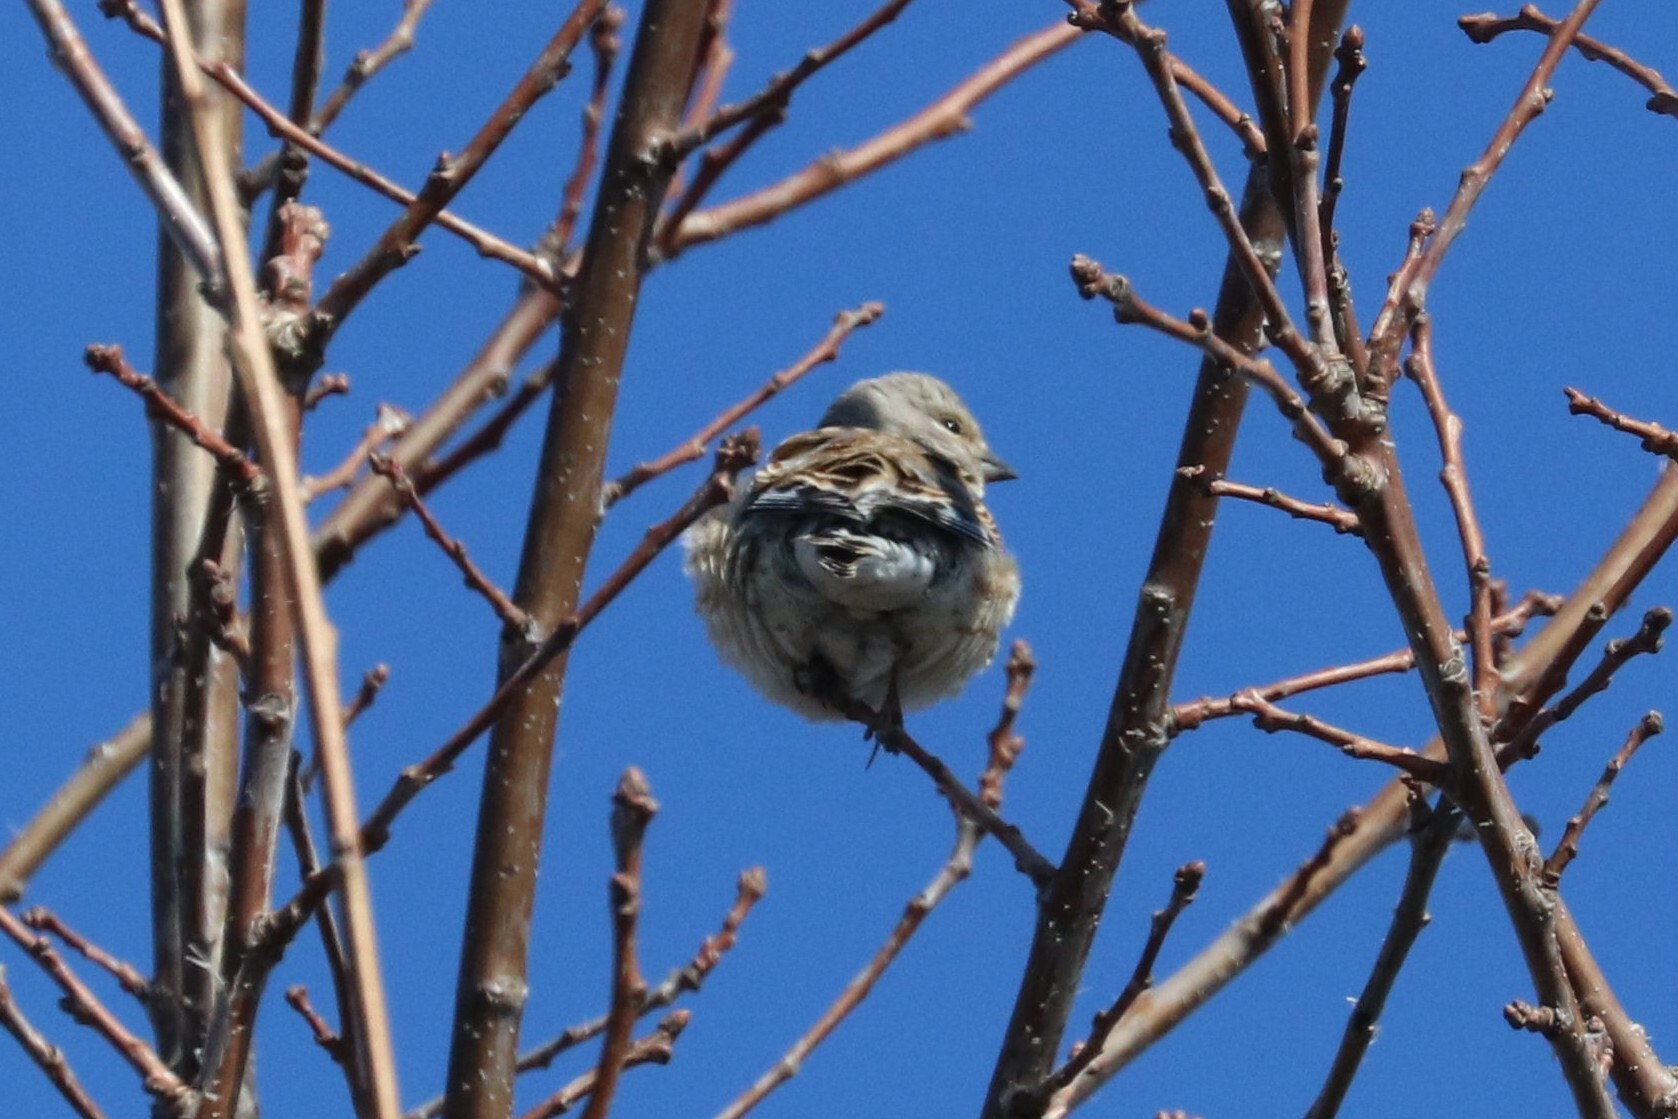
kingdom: Animalia
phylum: Chordata
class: Aves
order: Passeriformes
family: Fringillidae
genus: Linaria
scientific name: Linaria cannabina
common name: Common linnet
